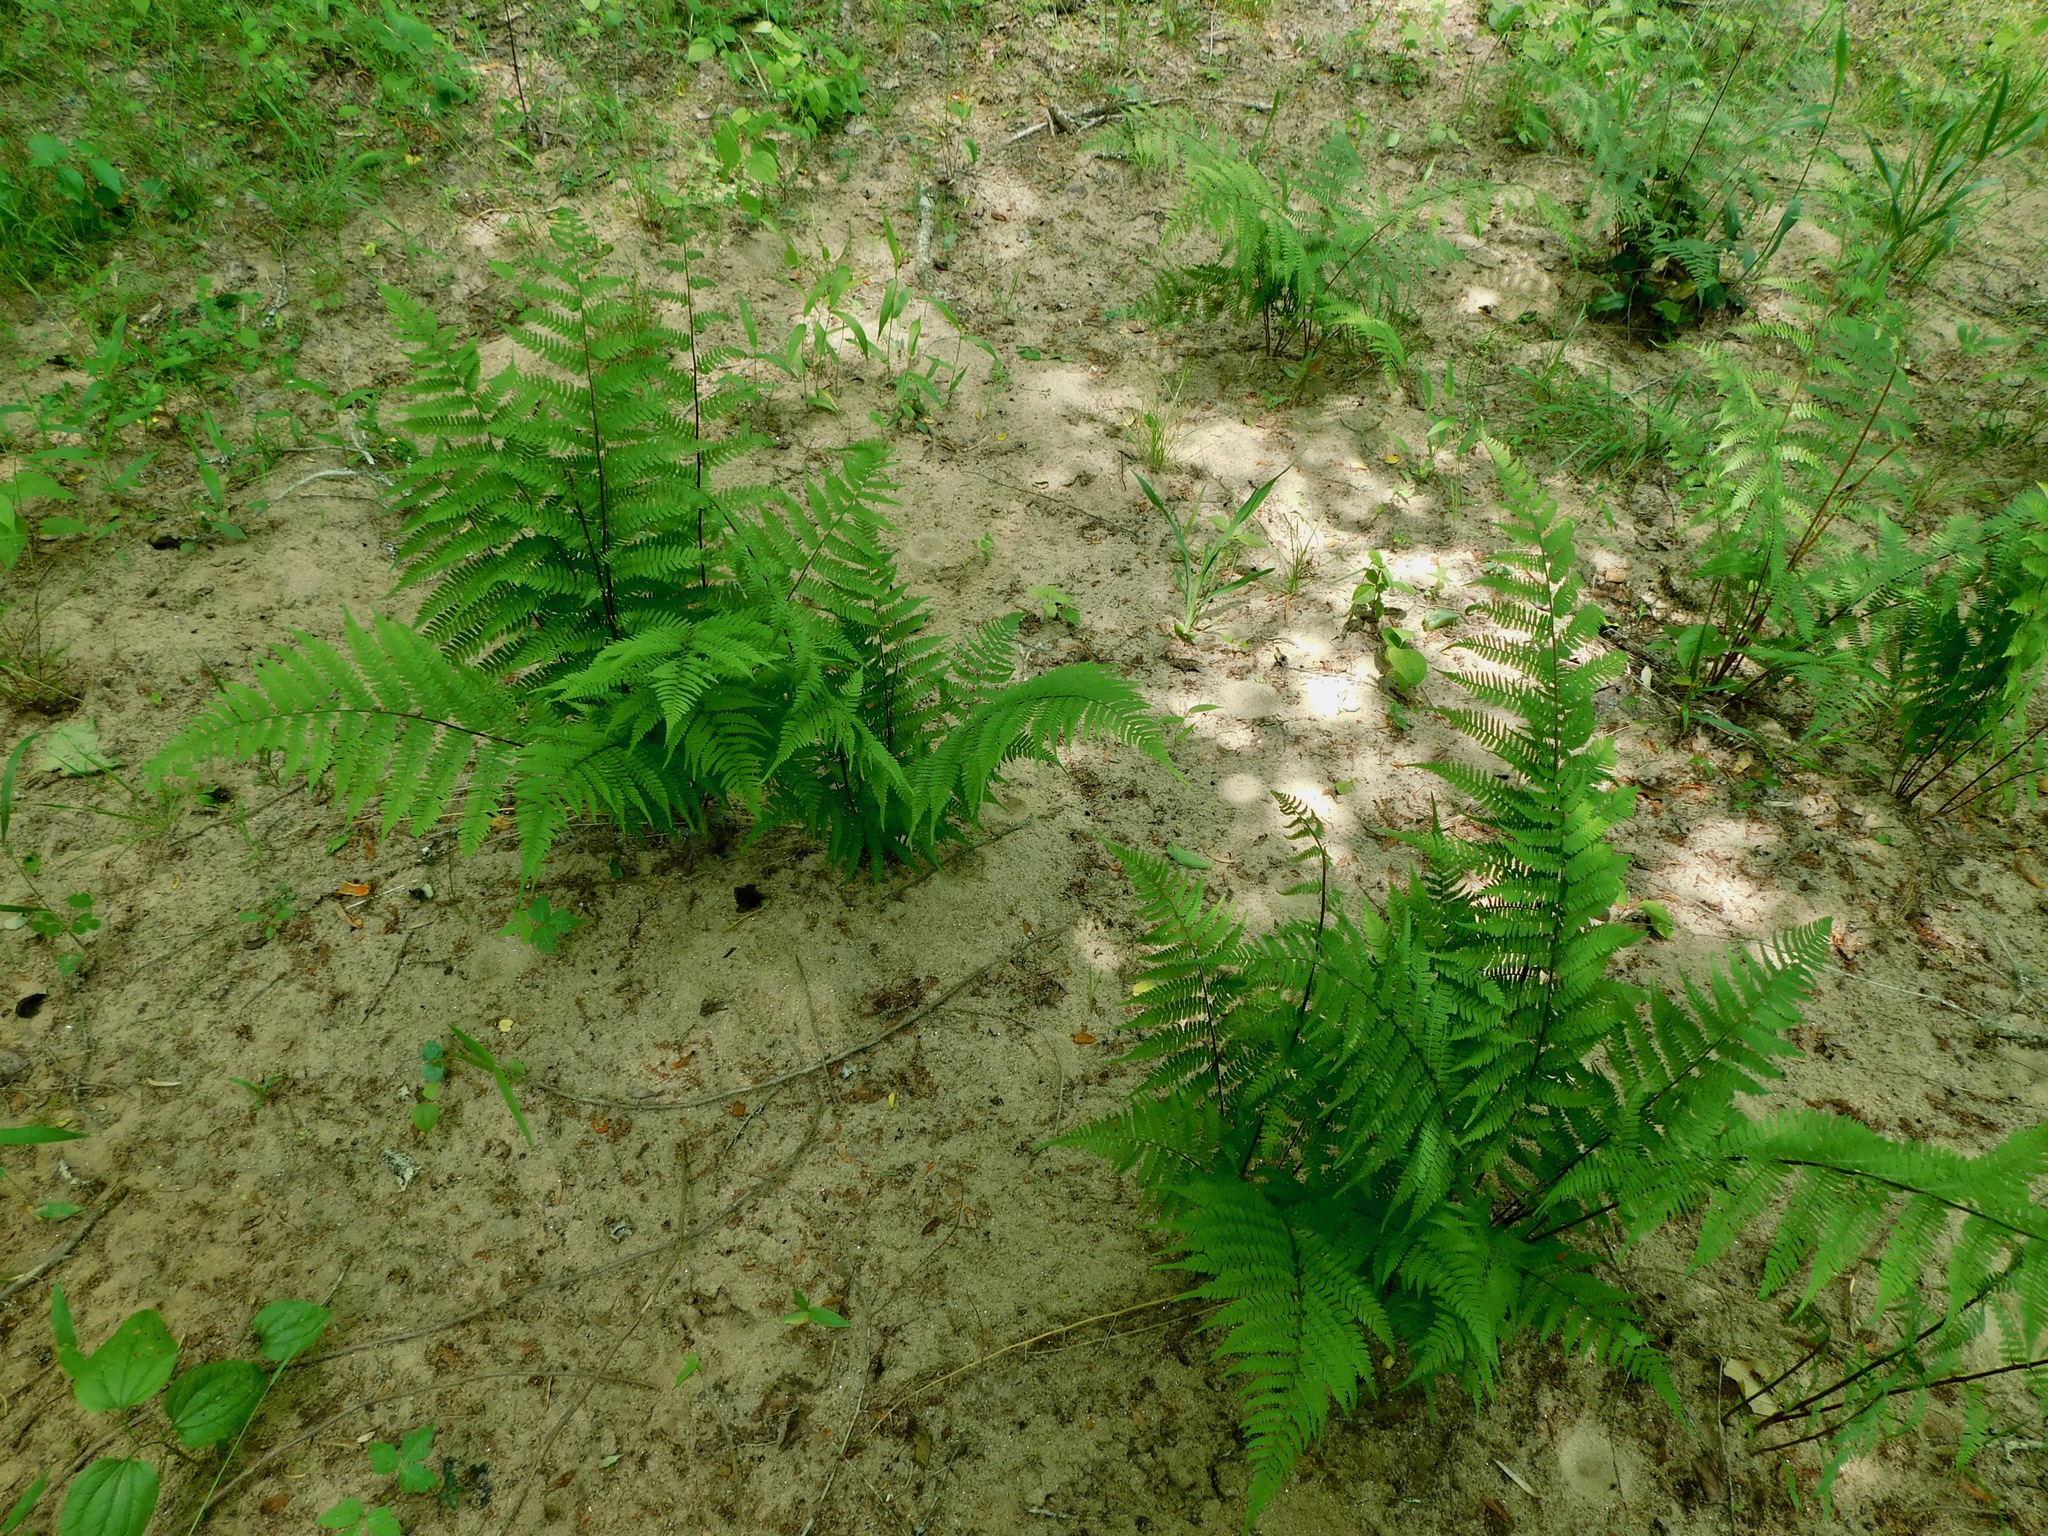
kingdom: Plantae
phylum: Tracheophyta
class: Polypodiopsida
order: Polypodiales
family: Athyriaceae
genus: Athyrium
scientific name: Athyrium asplenioides
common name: Southern lady fern
